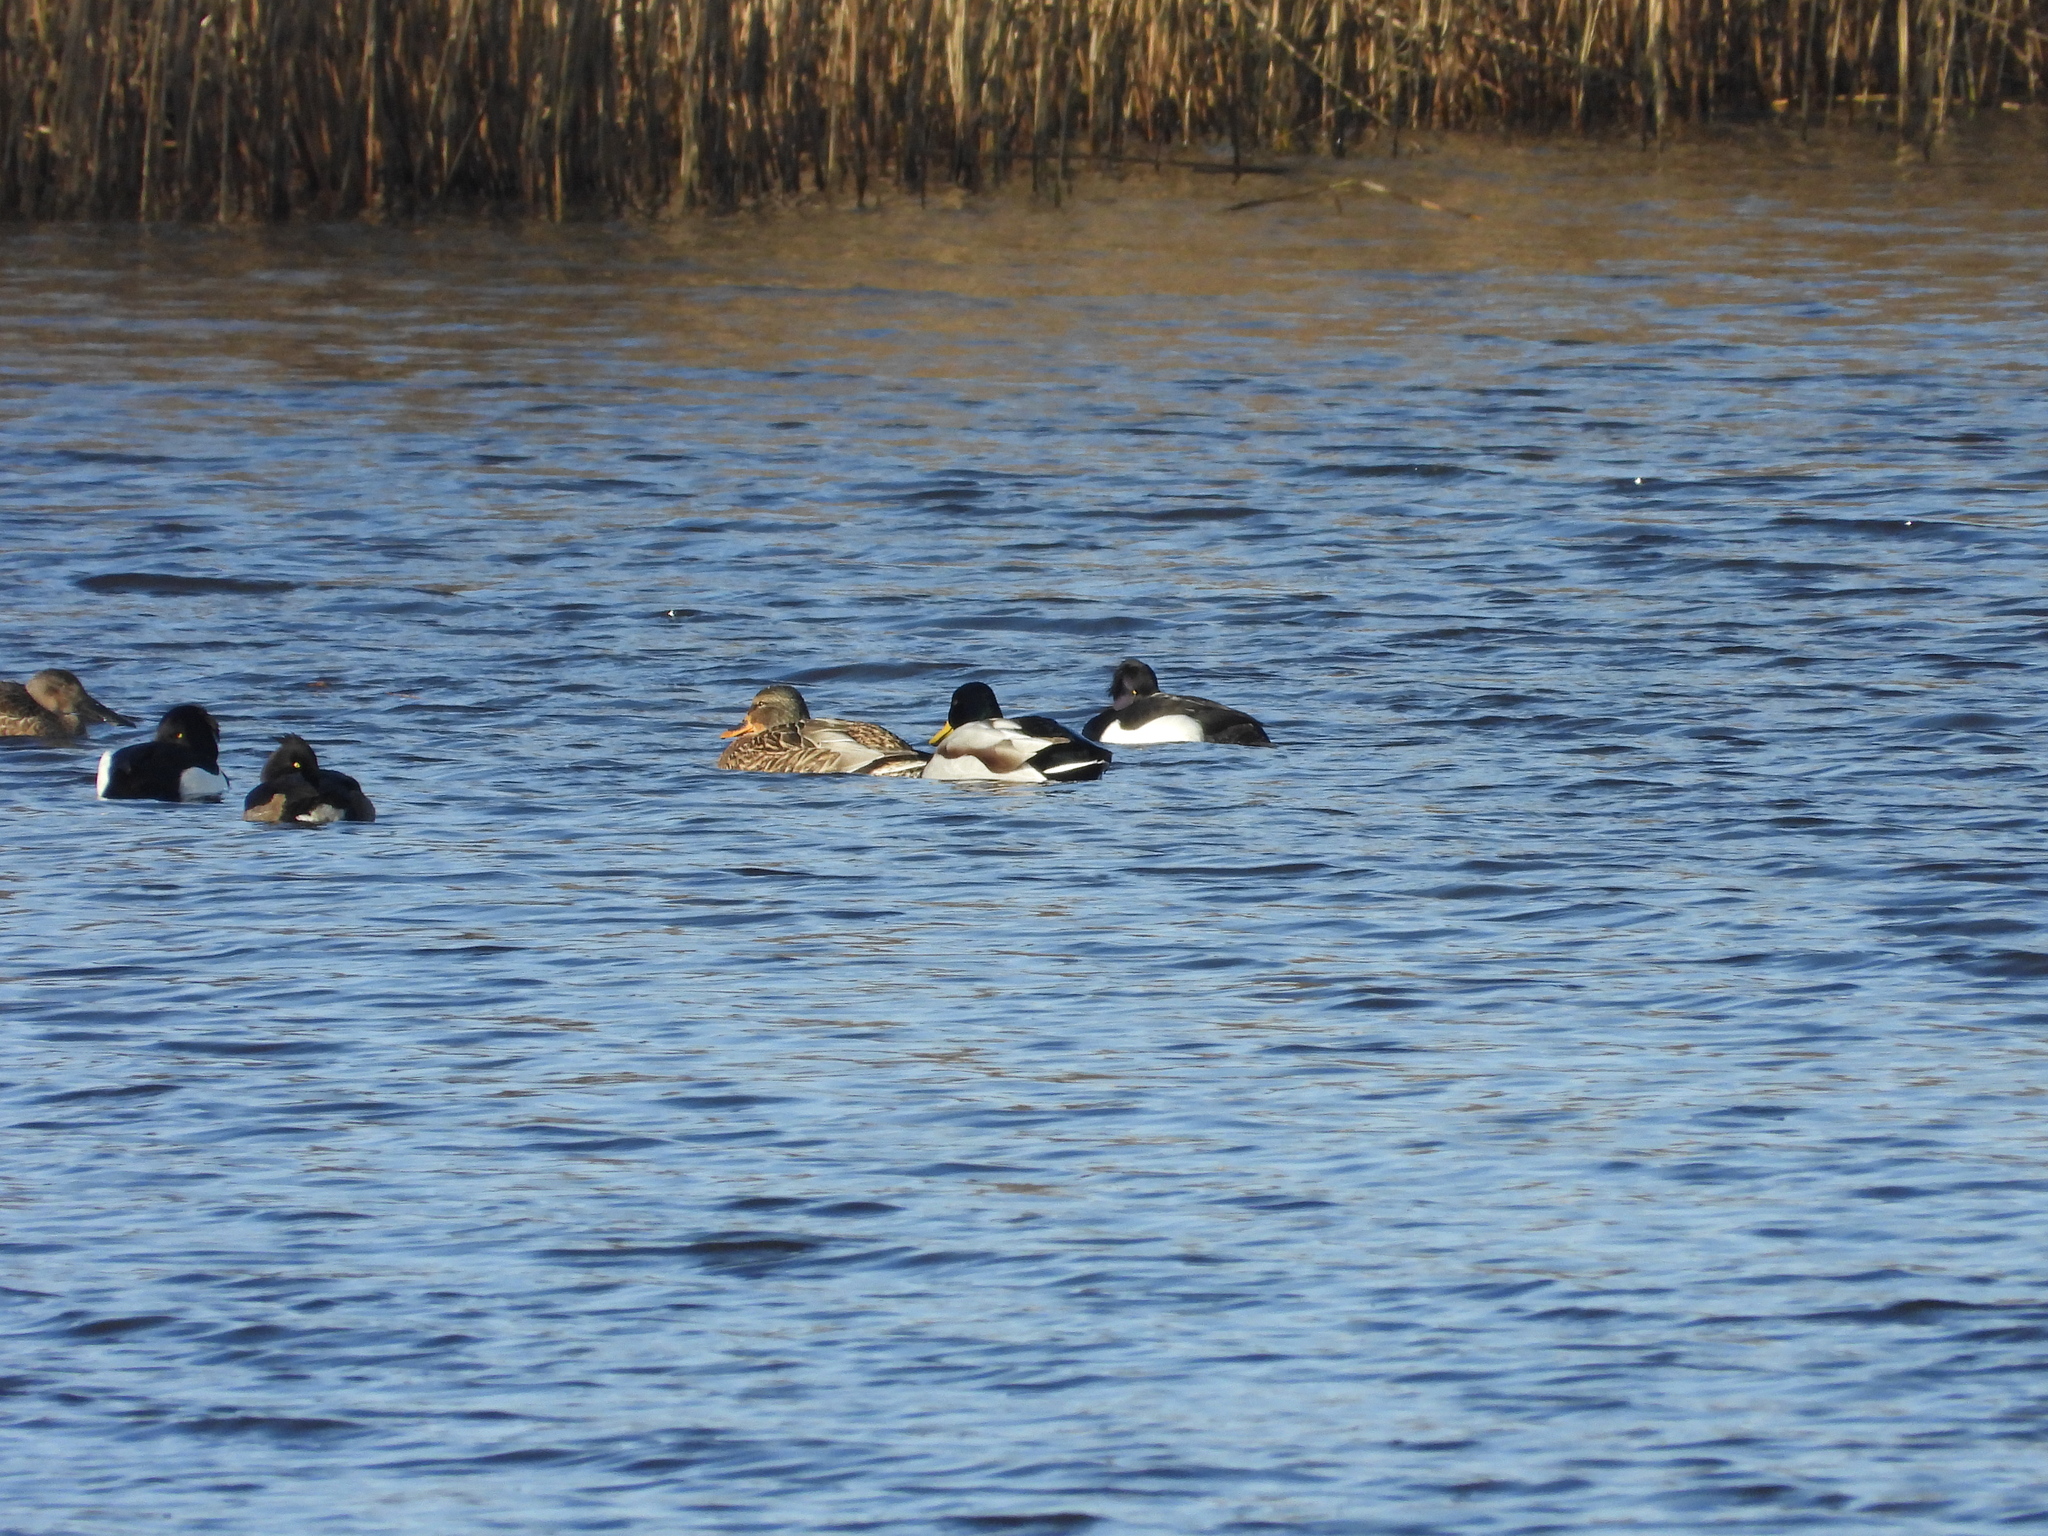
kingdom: Animalia
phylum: Chordata
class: Aves
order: Anseriformes
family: Anatidae
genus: Aythya
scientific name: Aythya fuligula
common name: Tufted duck
